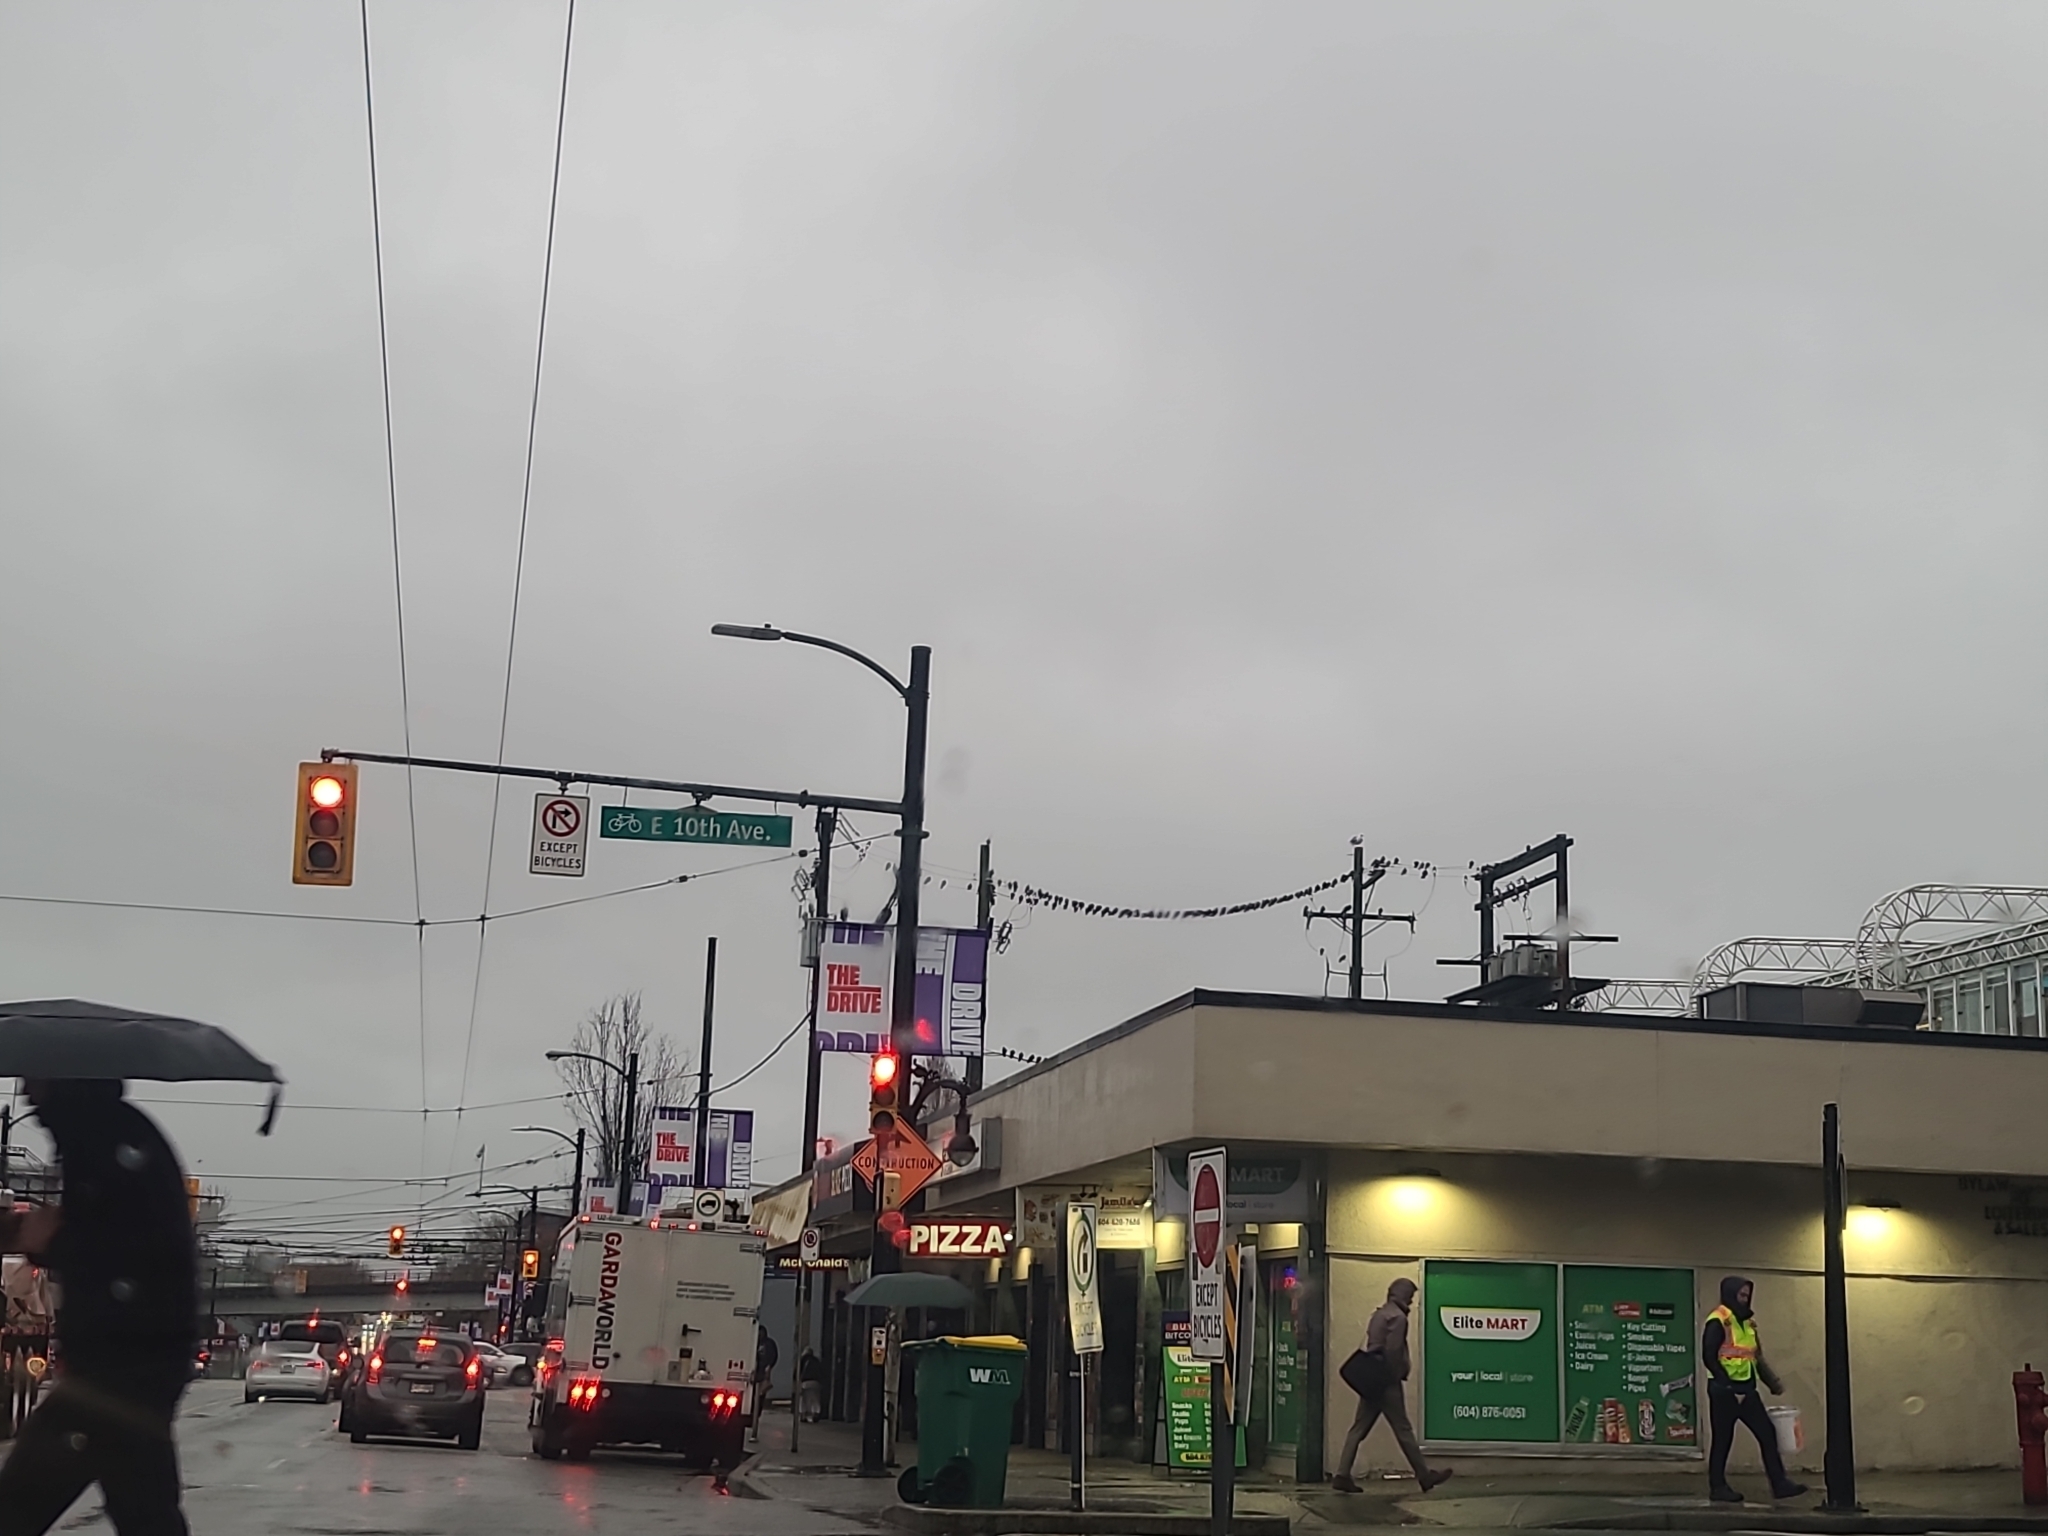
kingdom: Animalia
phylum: Chordata
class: Aves
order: Columbiformes
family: Columbidae
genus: Columba
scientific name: Columba livia
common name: Rock pigeon
